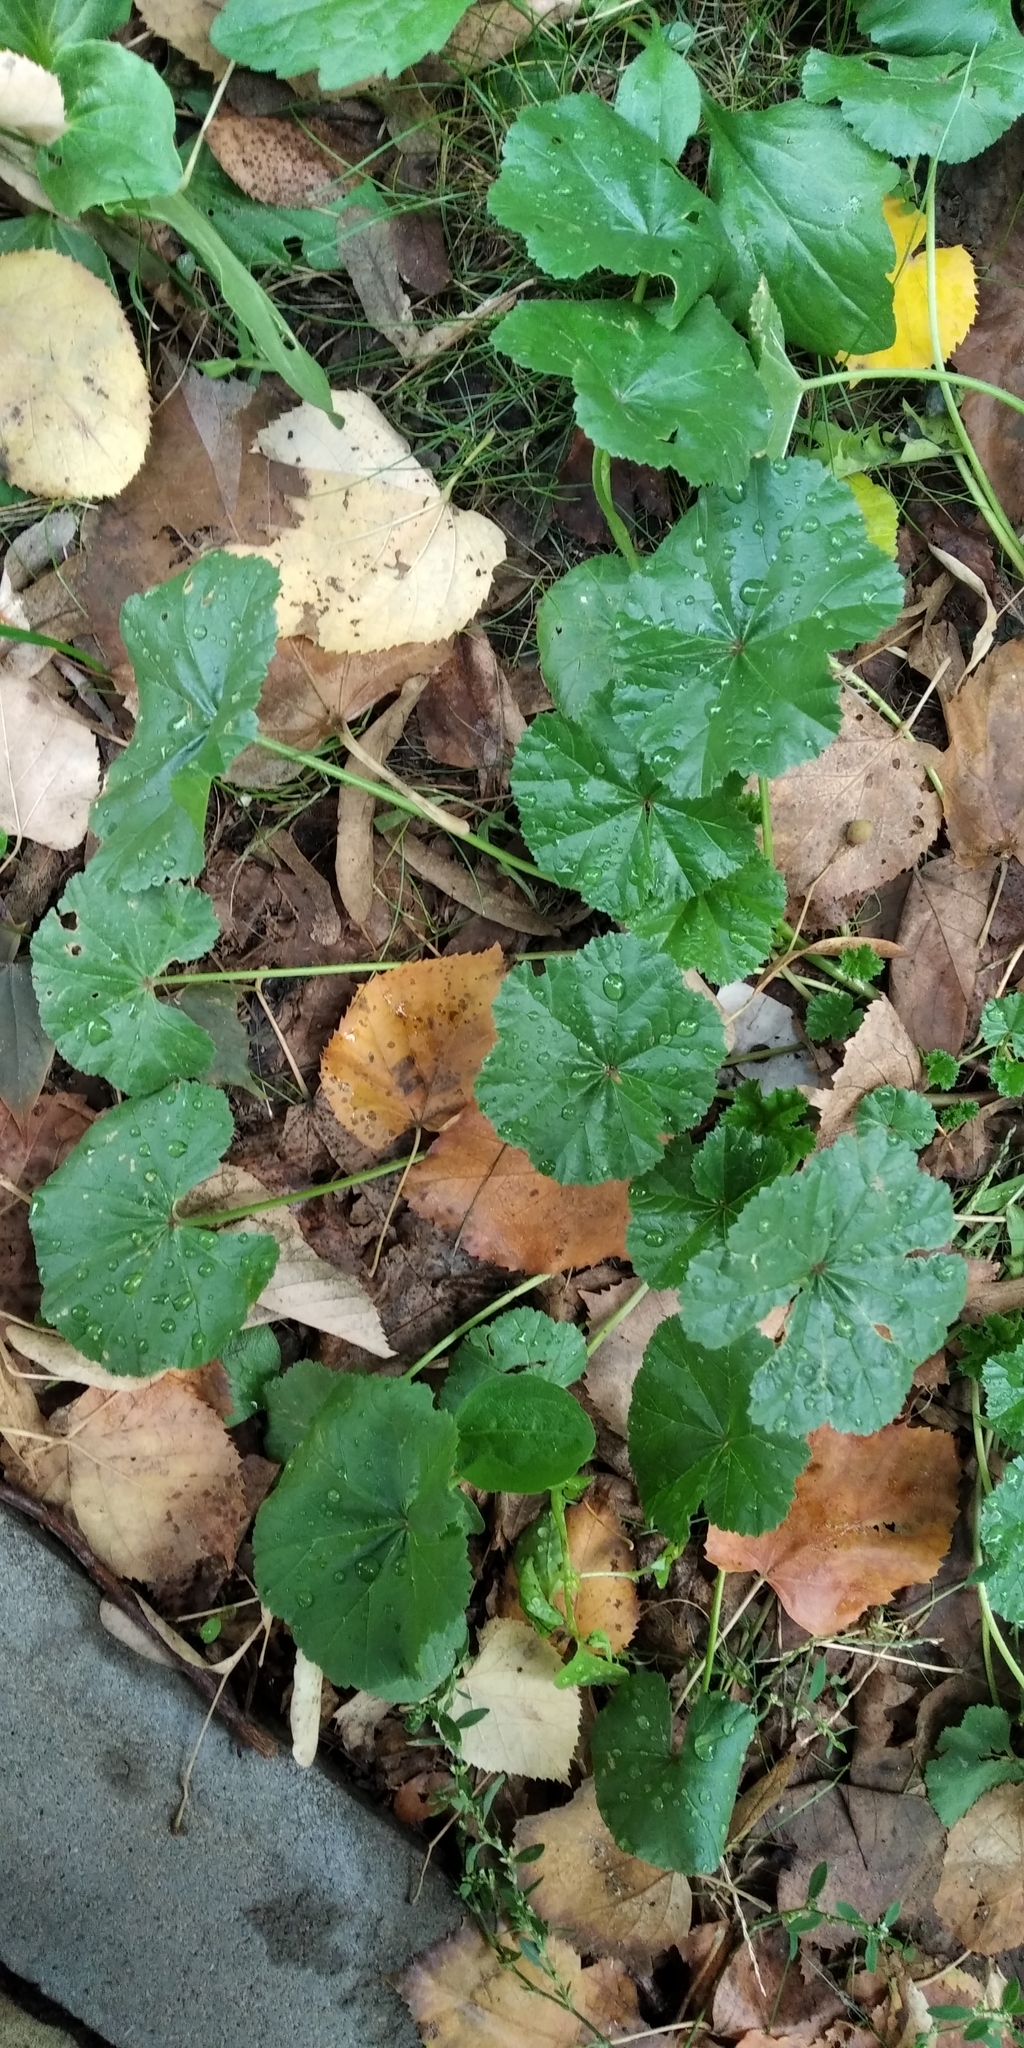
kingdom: Plantae
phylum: Tracheophyta
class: Magnoliopsida
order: Malvales
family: Malvaceae
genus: Malva
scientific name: Malva pusilla
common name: Small mallow
